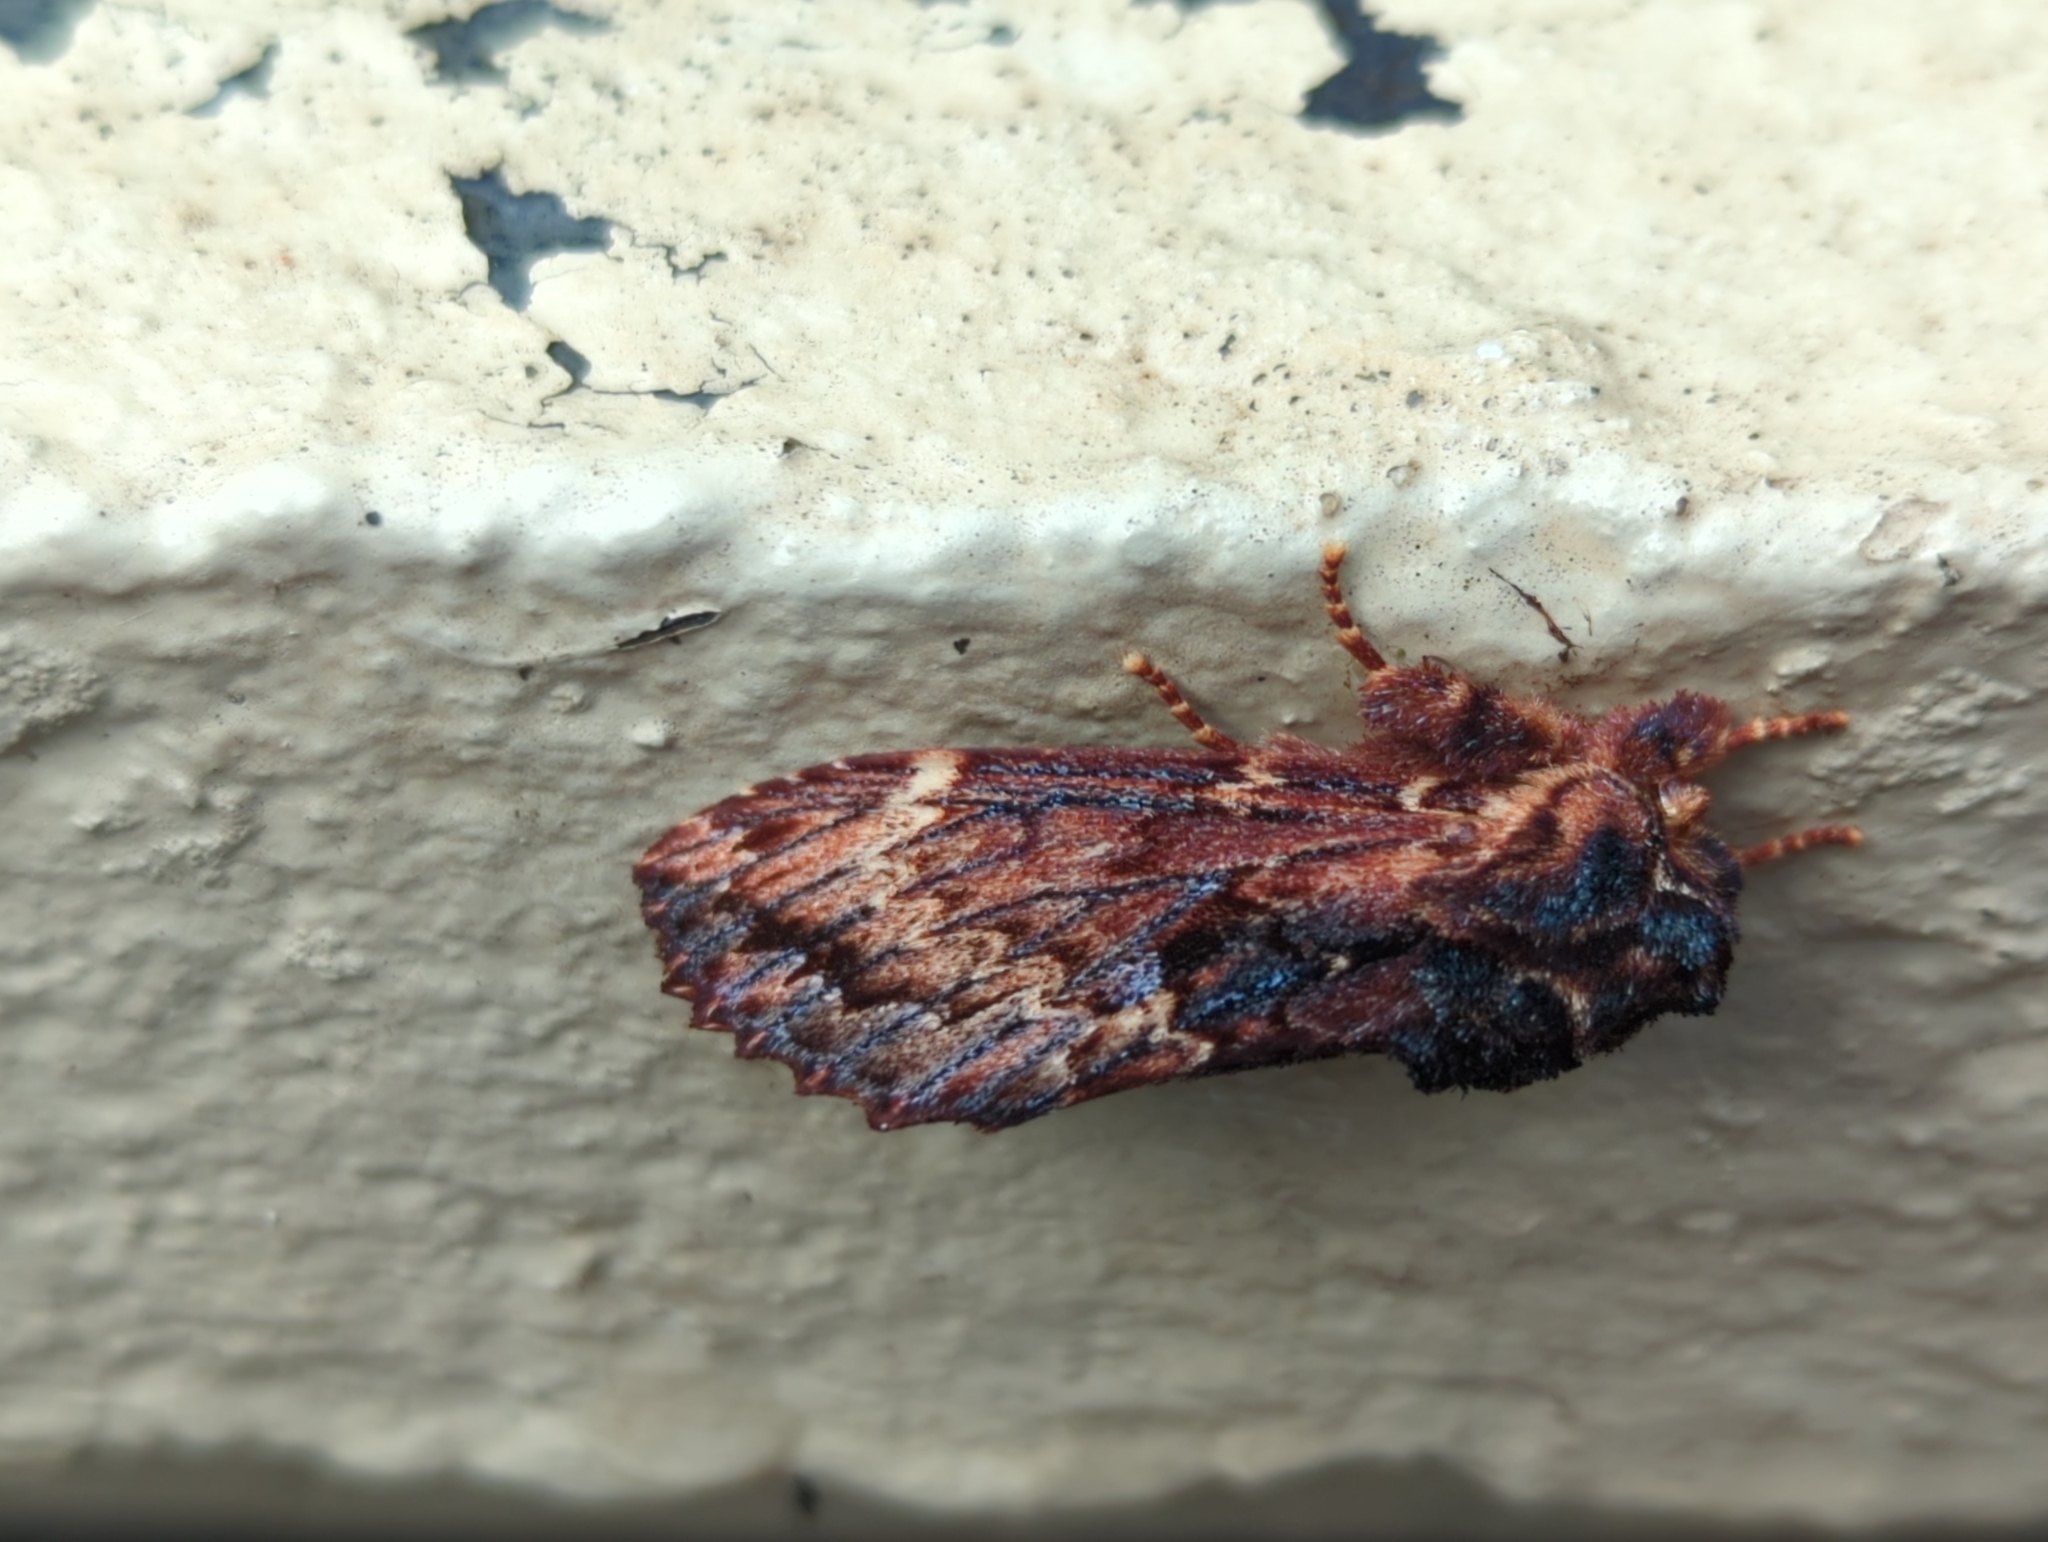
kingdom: Animalia
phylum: Arthropoda
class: Insecta
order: Lepidoptera
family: Notodontidae
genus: Sorama
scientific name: Sorama bicolor
